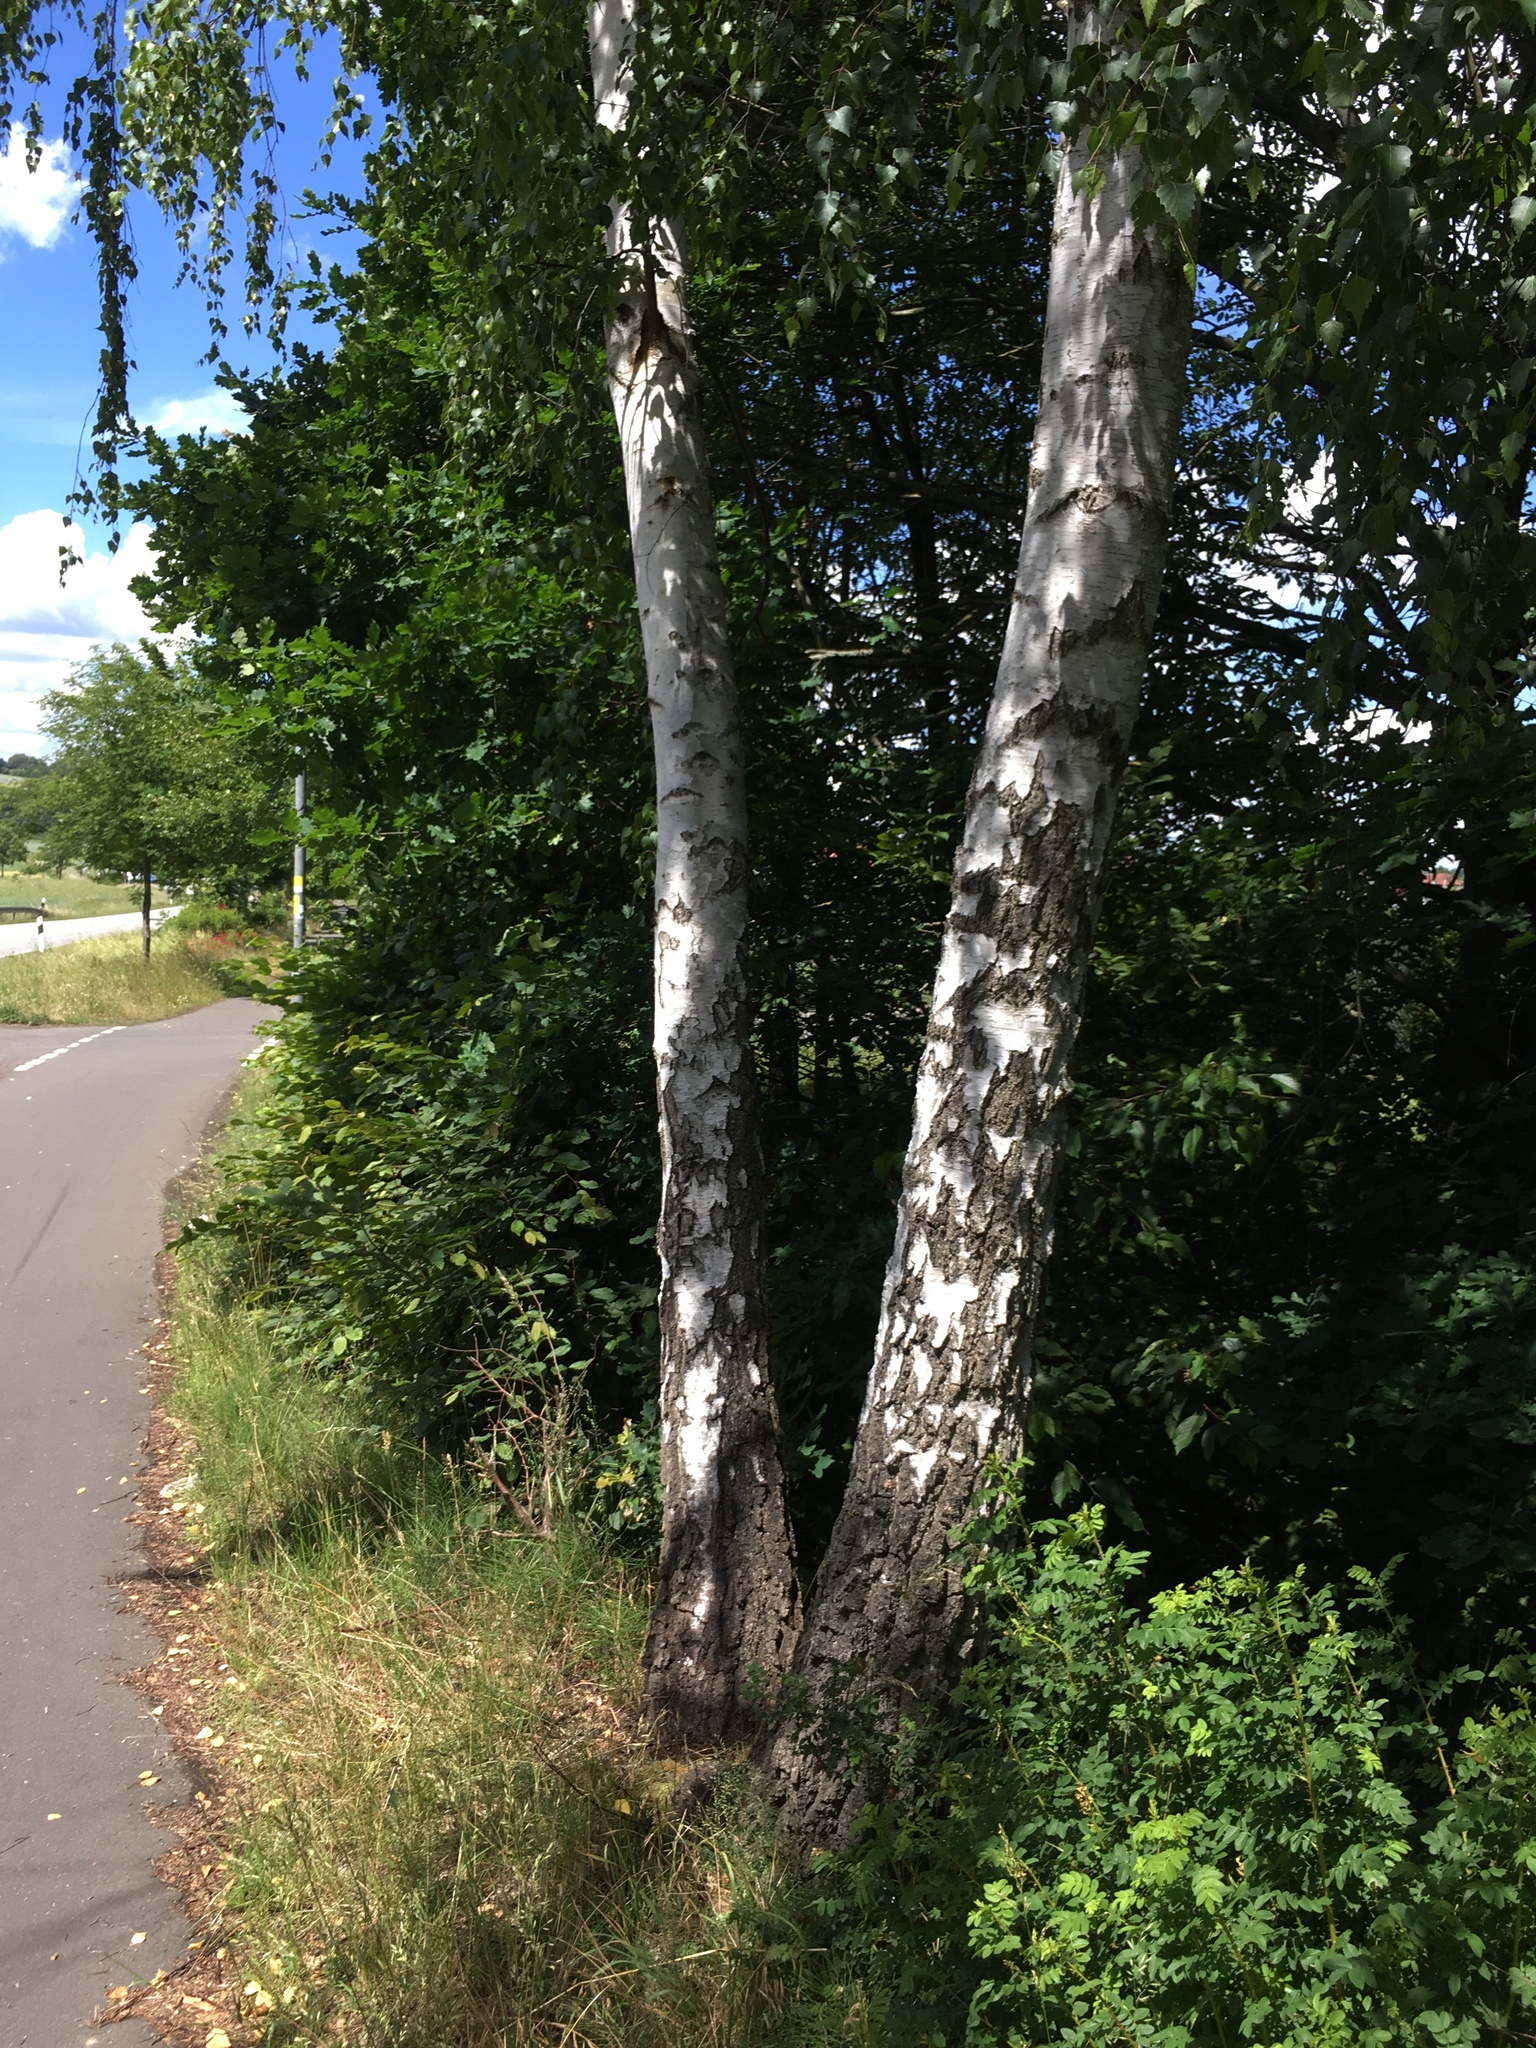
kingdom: Plantae
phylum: Tracheophyta
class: Magnoliopsida
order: Fagales
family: Betulaceae
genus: Betula
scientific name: Betula pendula
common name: Silver birch
